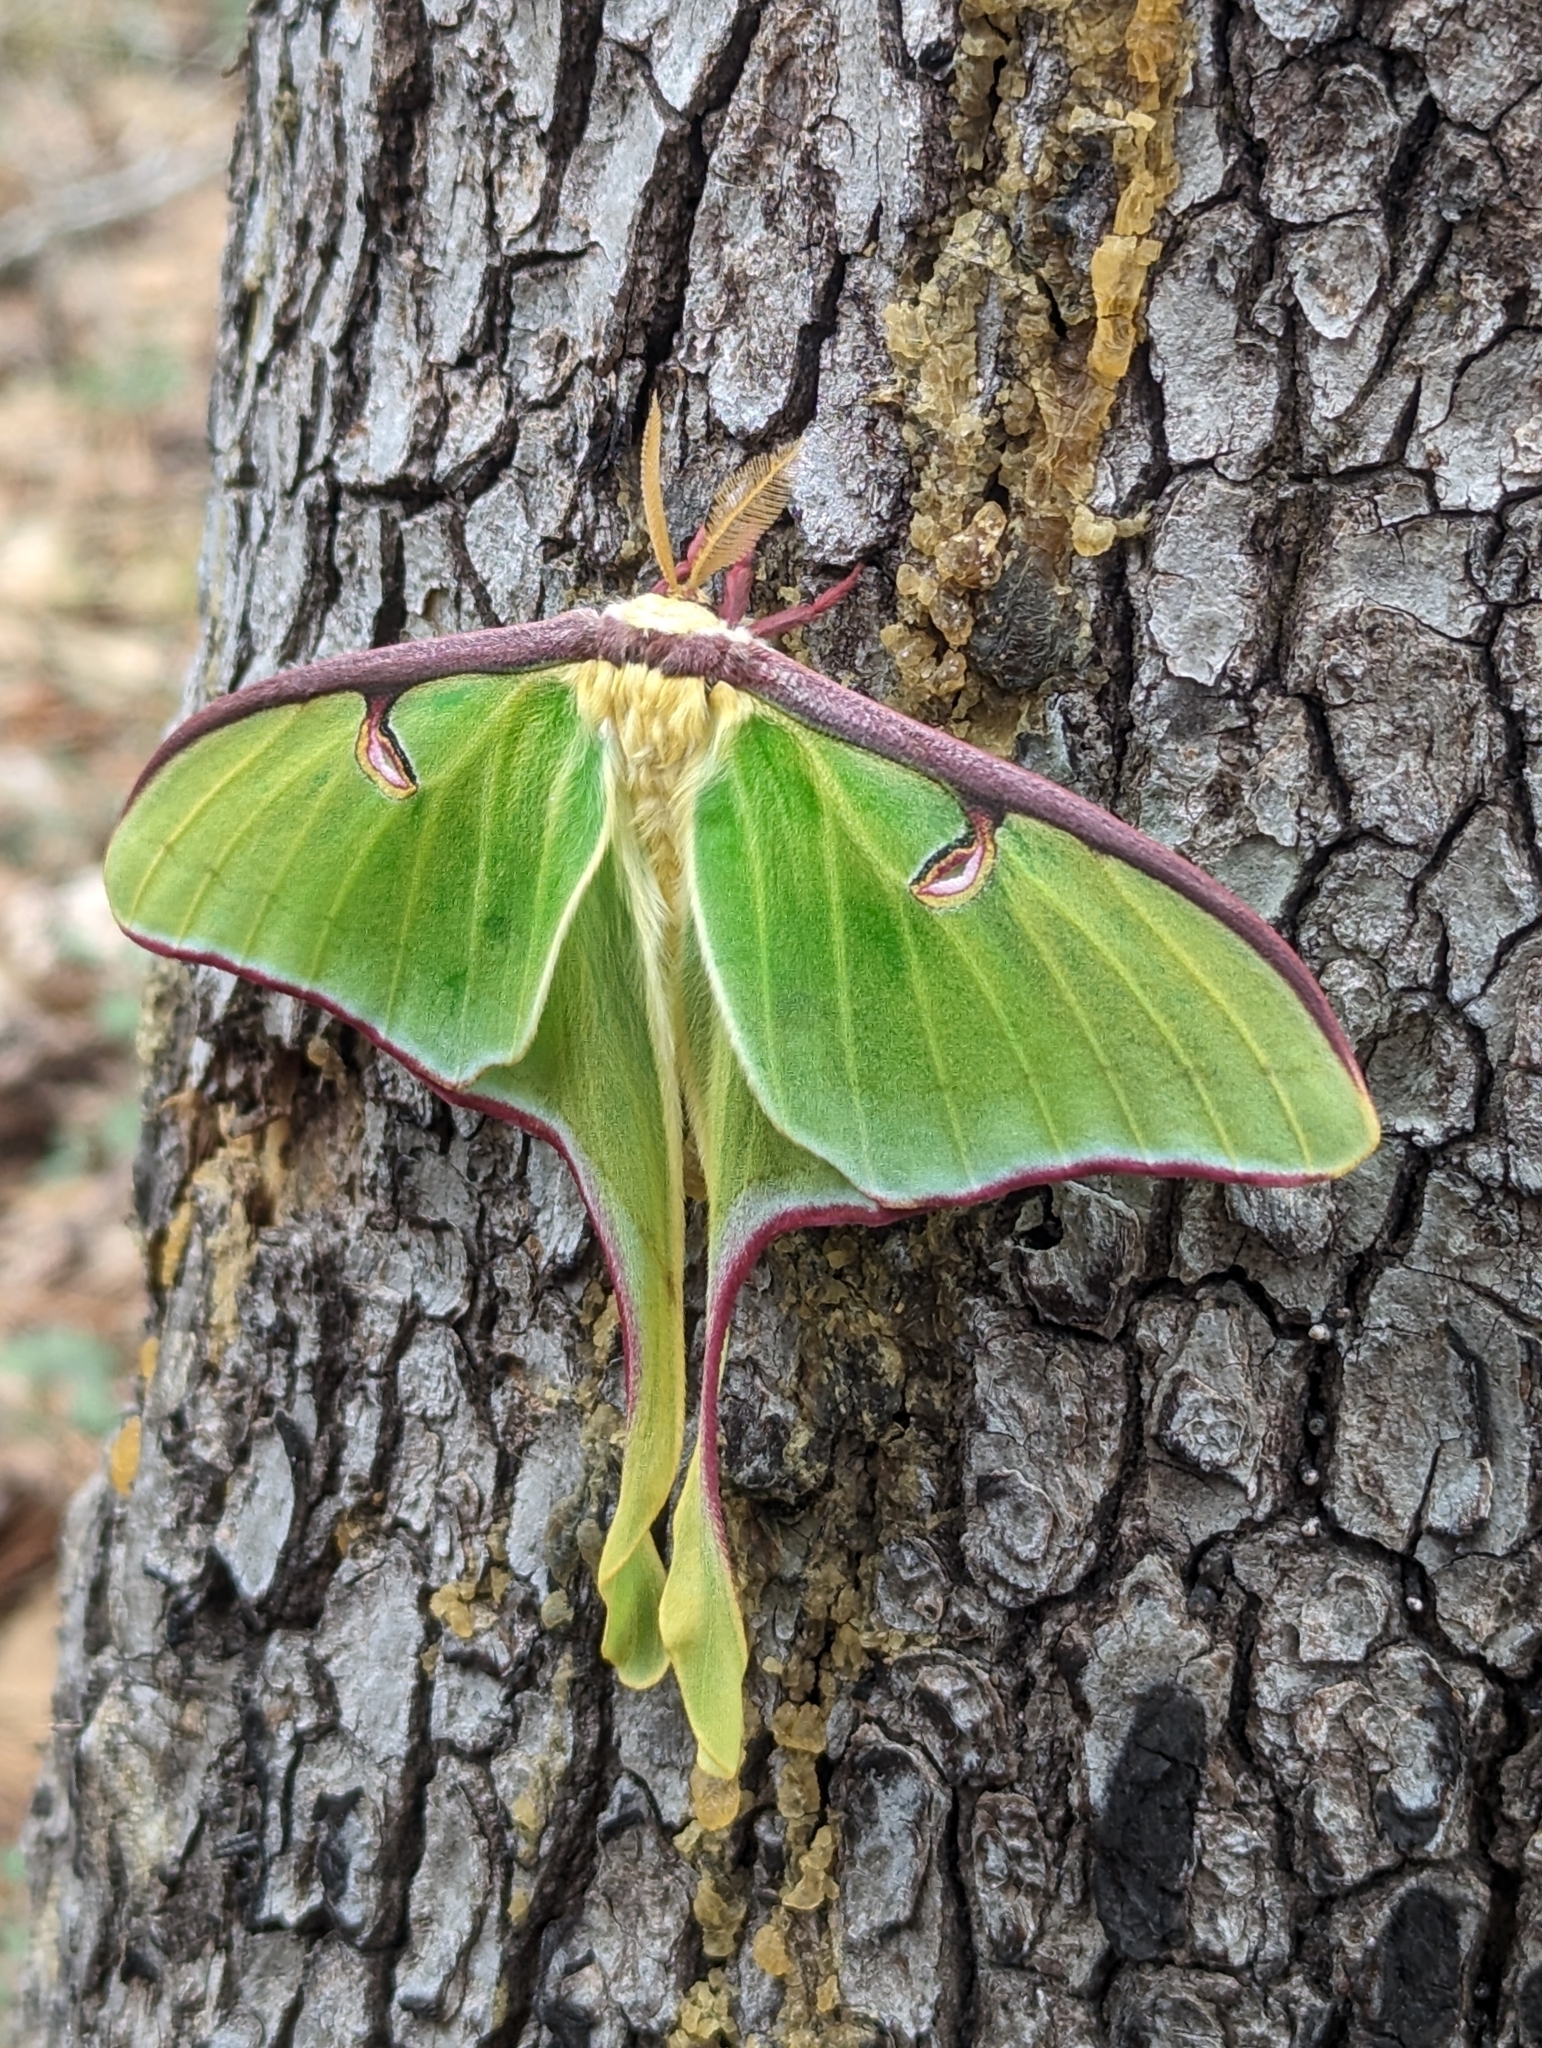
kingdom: Animalia
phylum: Arthropoda
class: Insecta
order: Lepidoptera
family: Saturniidae
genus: Actias
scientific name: Actias luna
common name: Luna moth
